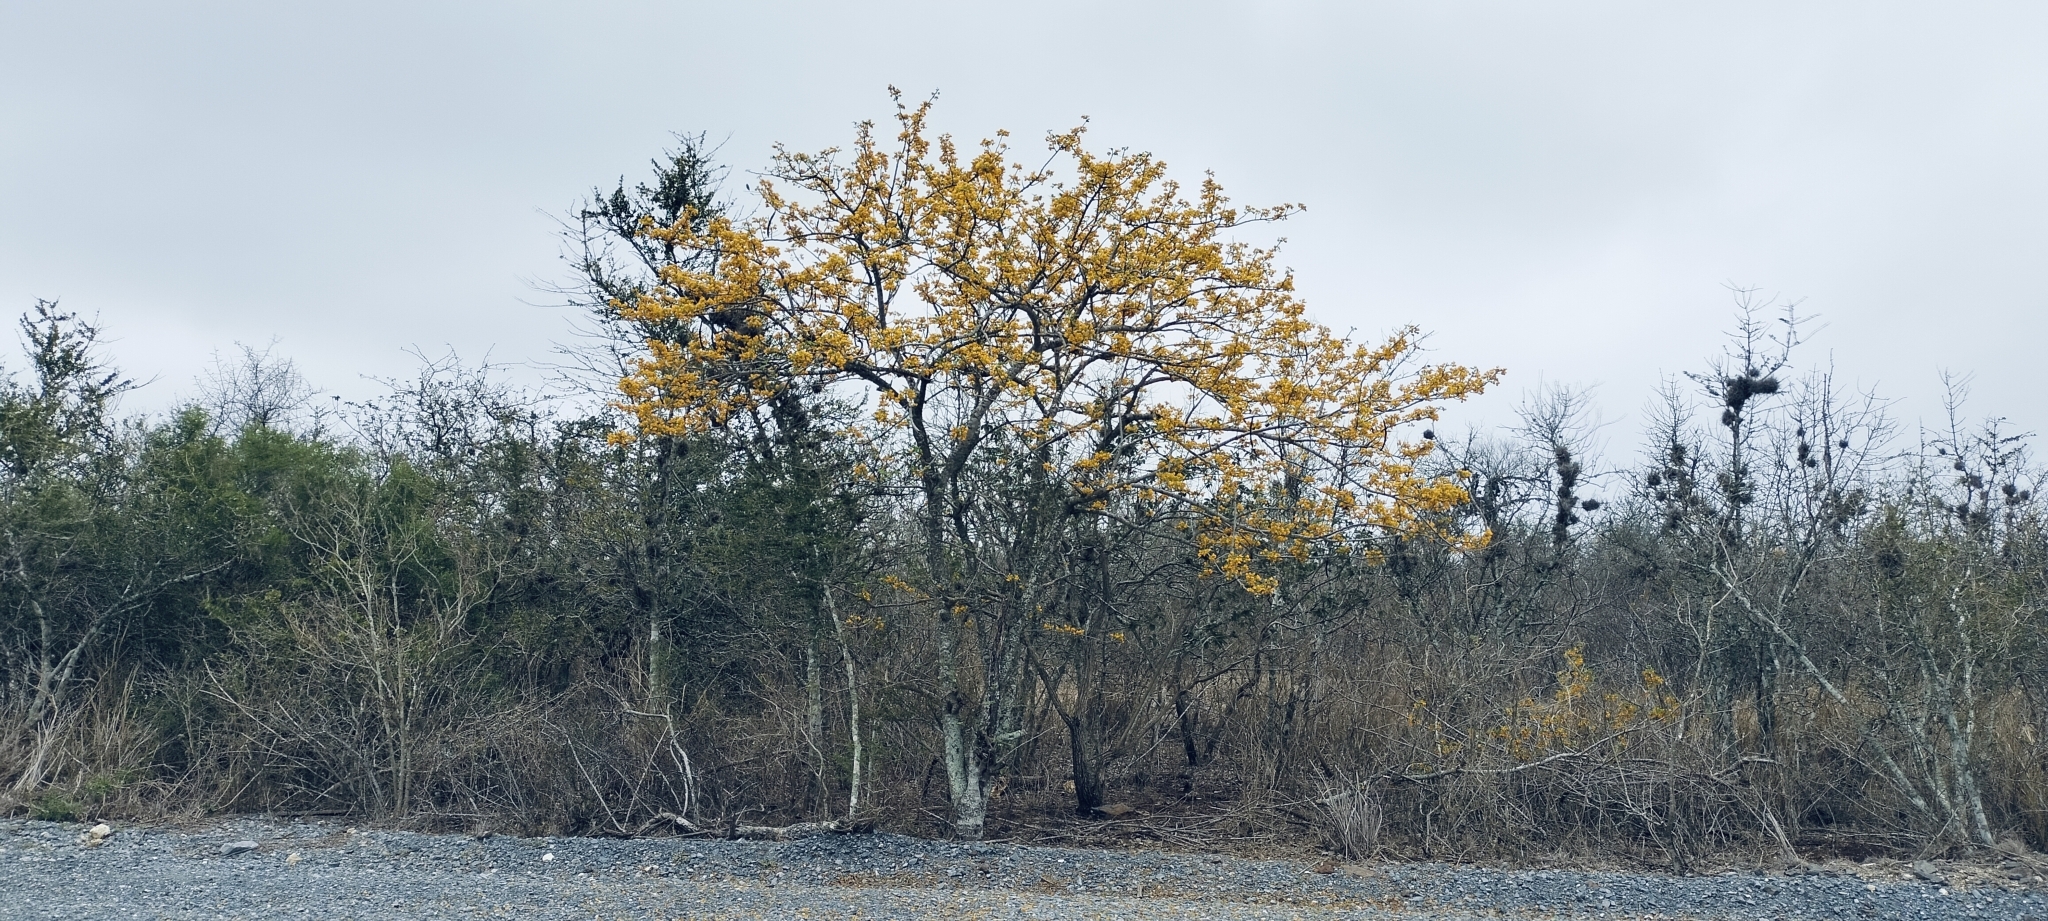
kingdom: Plantae
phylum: Tracheophyta
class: Magnoliopsida
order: Fabales
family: Fabaceae
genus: Senna
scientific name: Senna atomaria
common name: Flor de san jose
